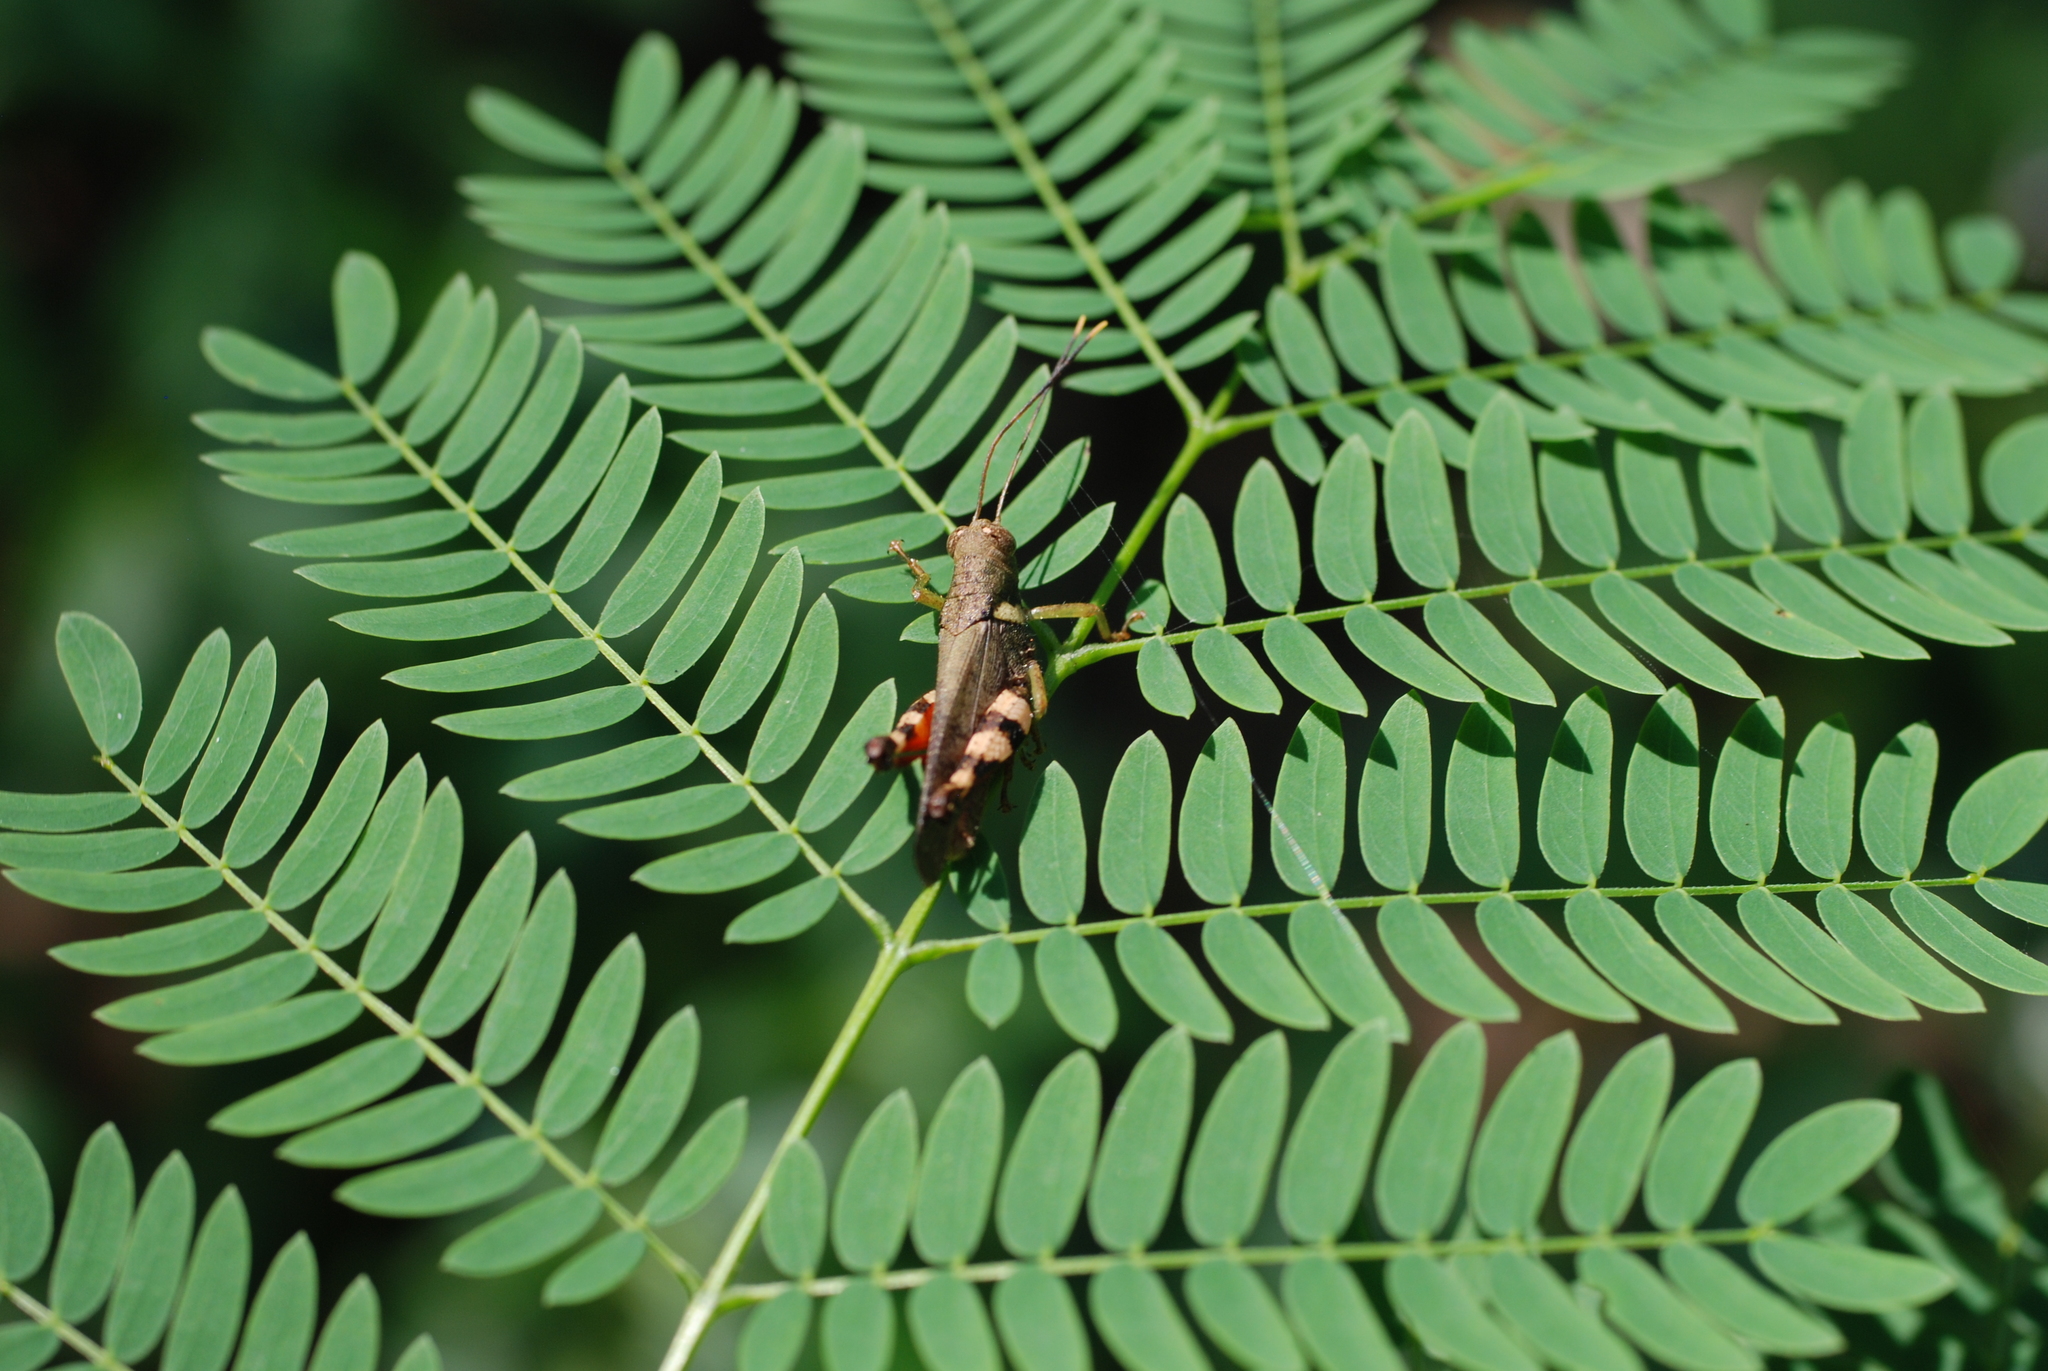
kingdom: Animalia
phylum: Arthropoda
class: Insecta
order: Orthoptera
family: Acrididae
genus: Apalacris
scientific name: Apalacris varicornis
